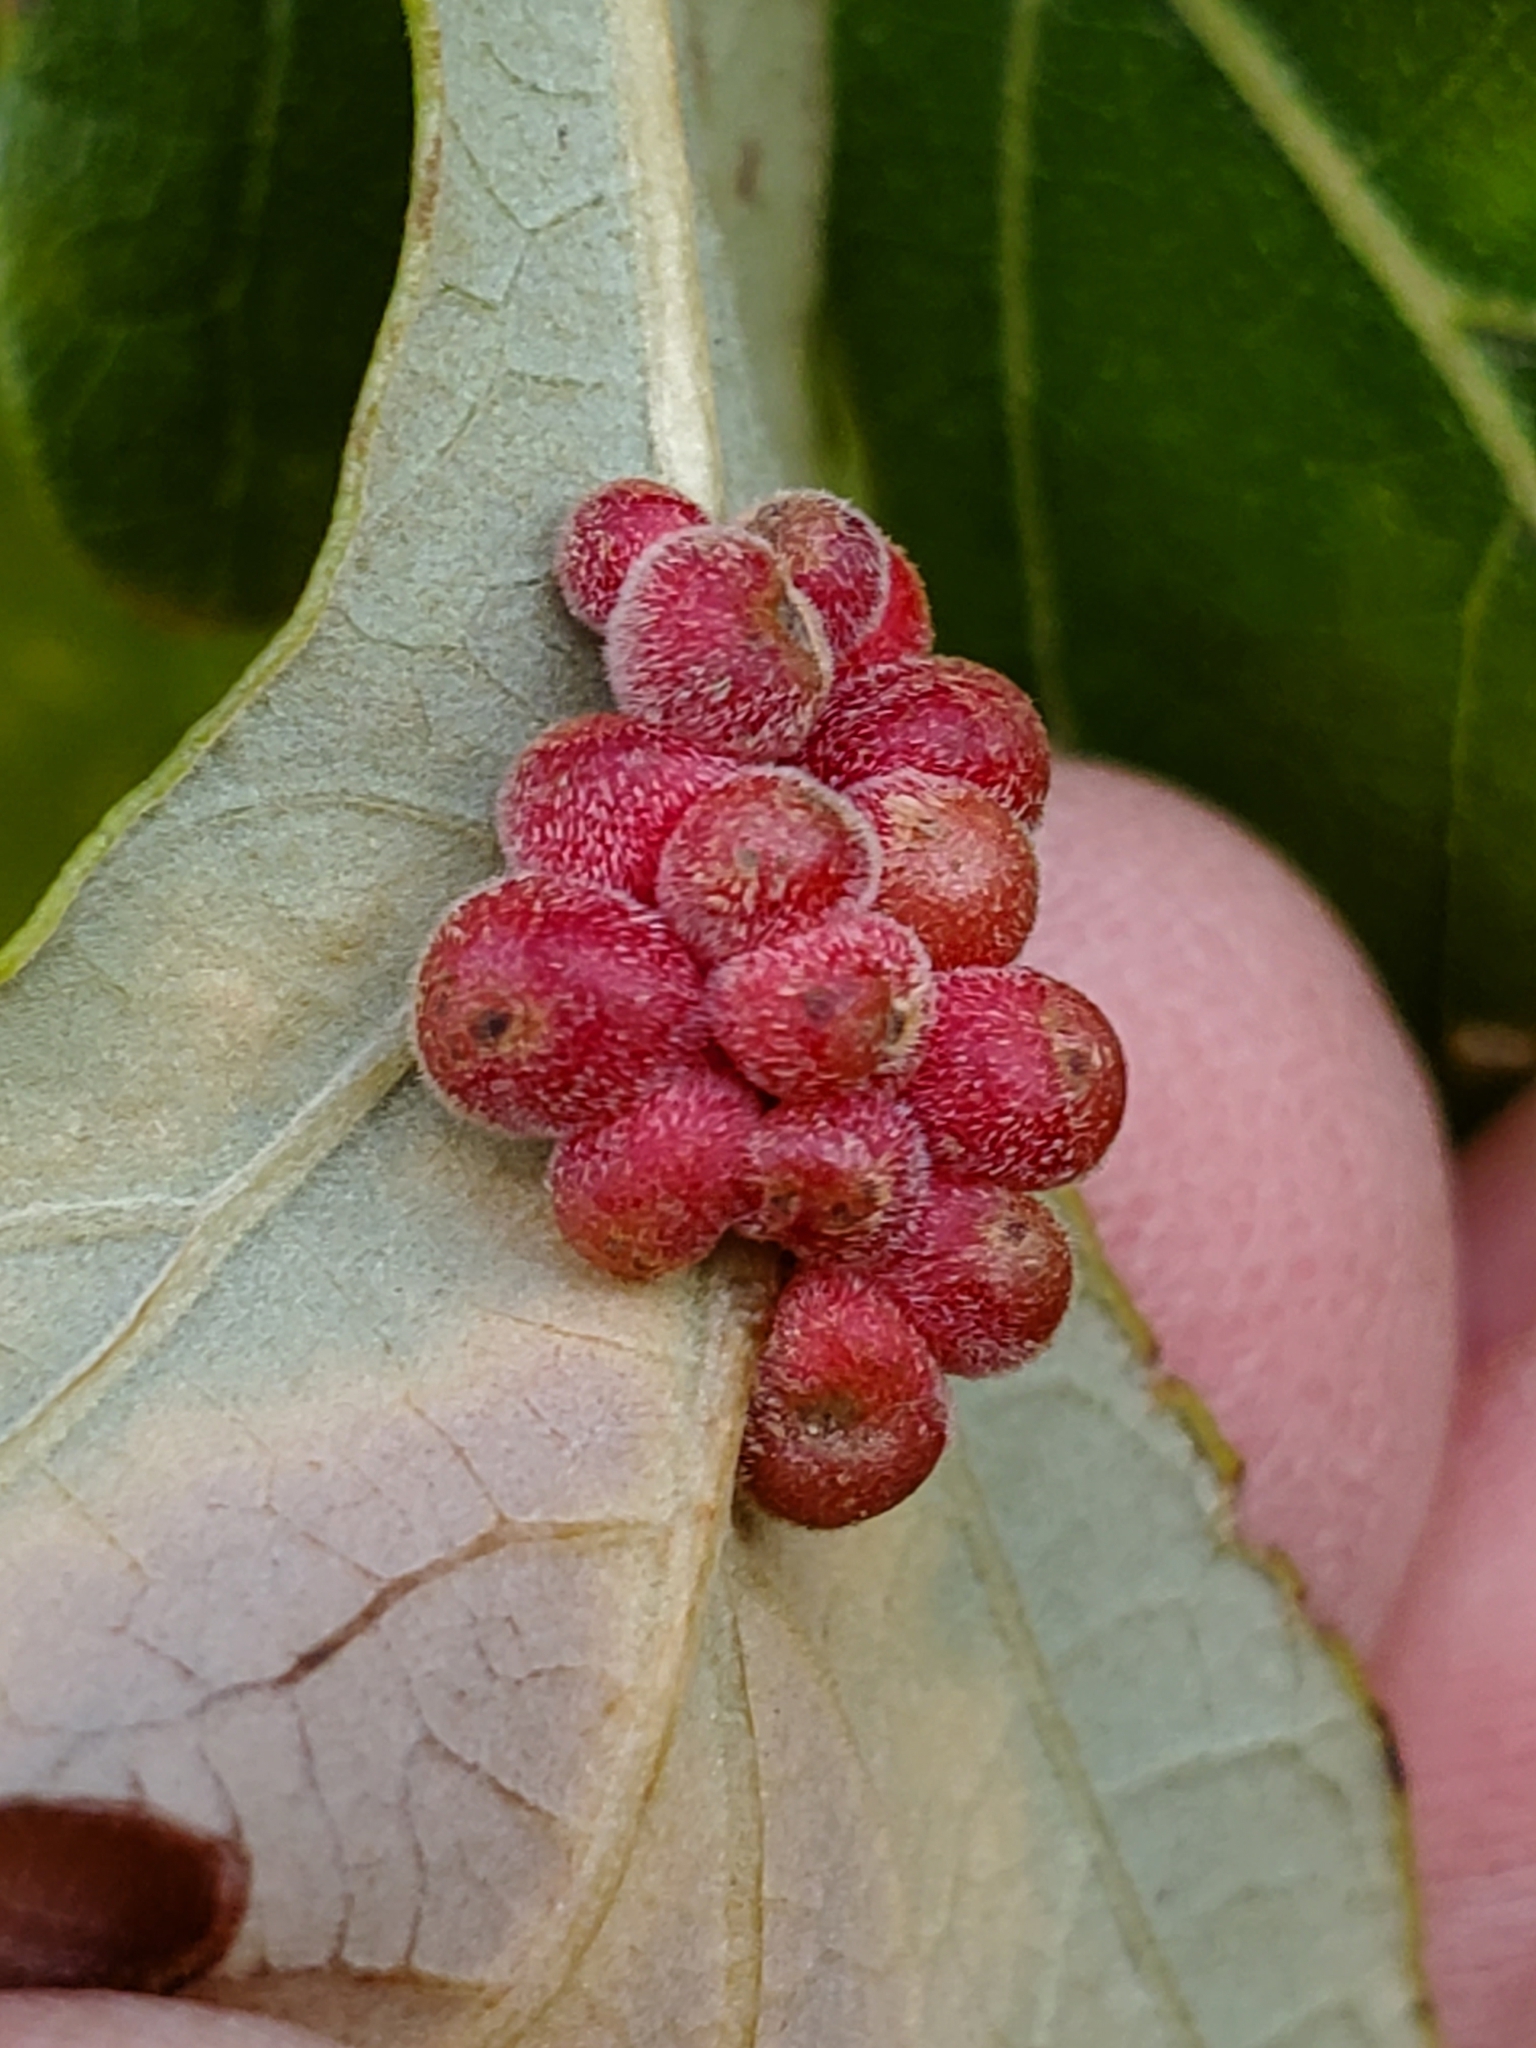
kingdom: Animalia
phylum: Arthropoda
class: Insecta
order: Hymenoptera
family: Cynipidae
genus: Andricus
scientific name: Andricus
